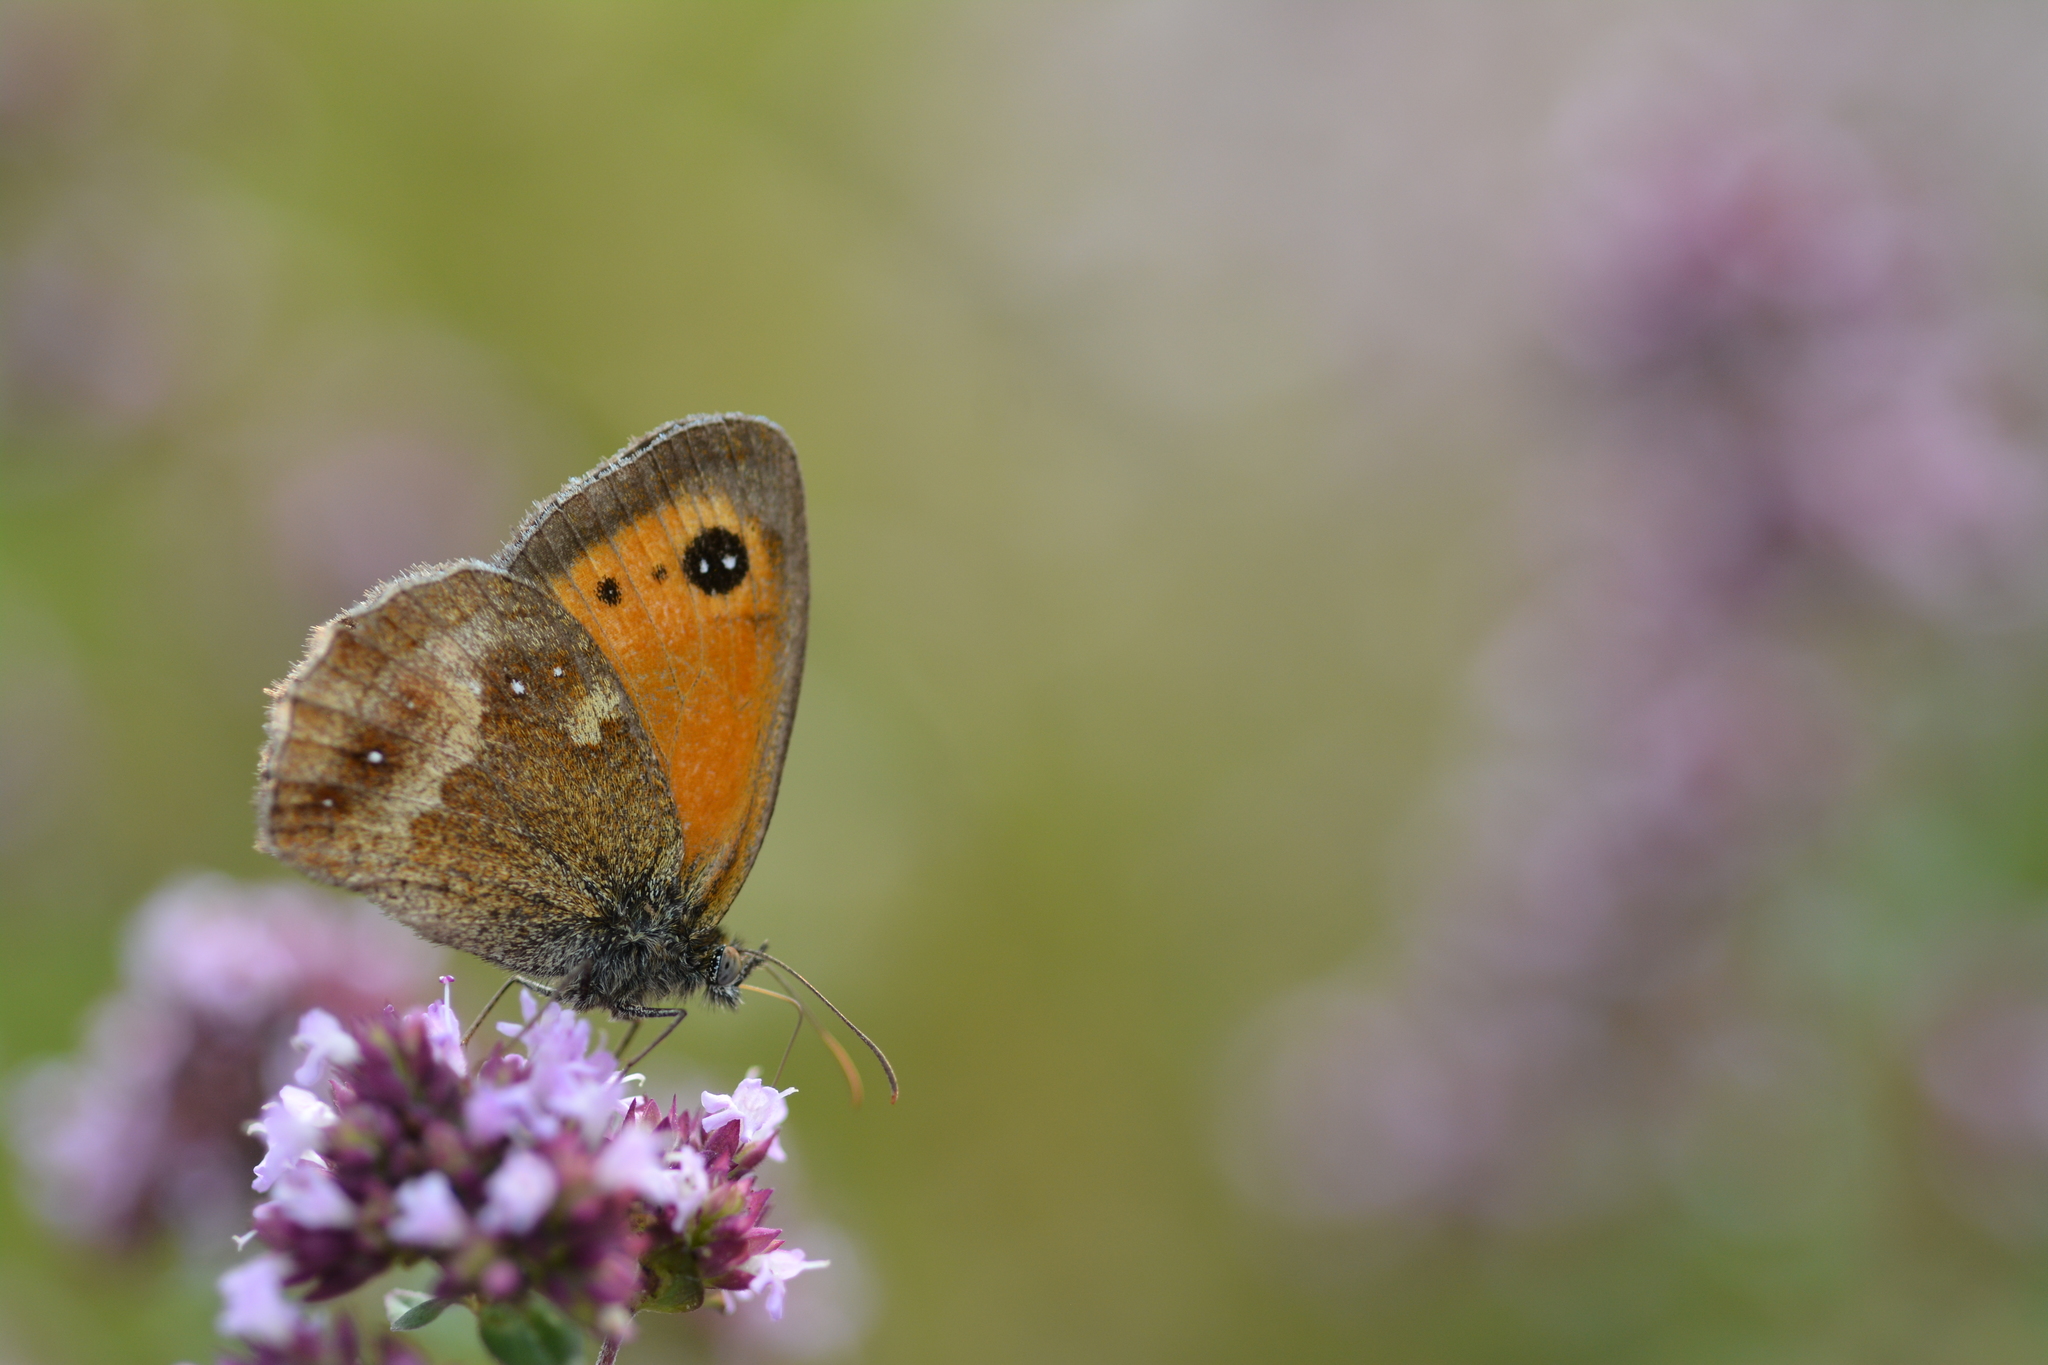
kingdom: Animalia
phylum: Arthropoda
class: Insecta
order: Lepidoptera
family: Nymphalidae
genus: Pyronia
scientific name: Pyronia tithonus
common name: Gatekeeper
